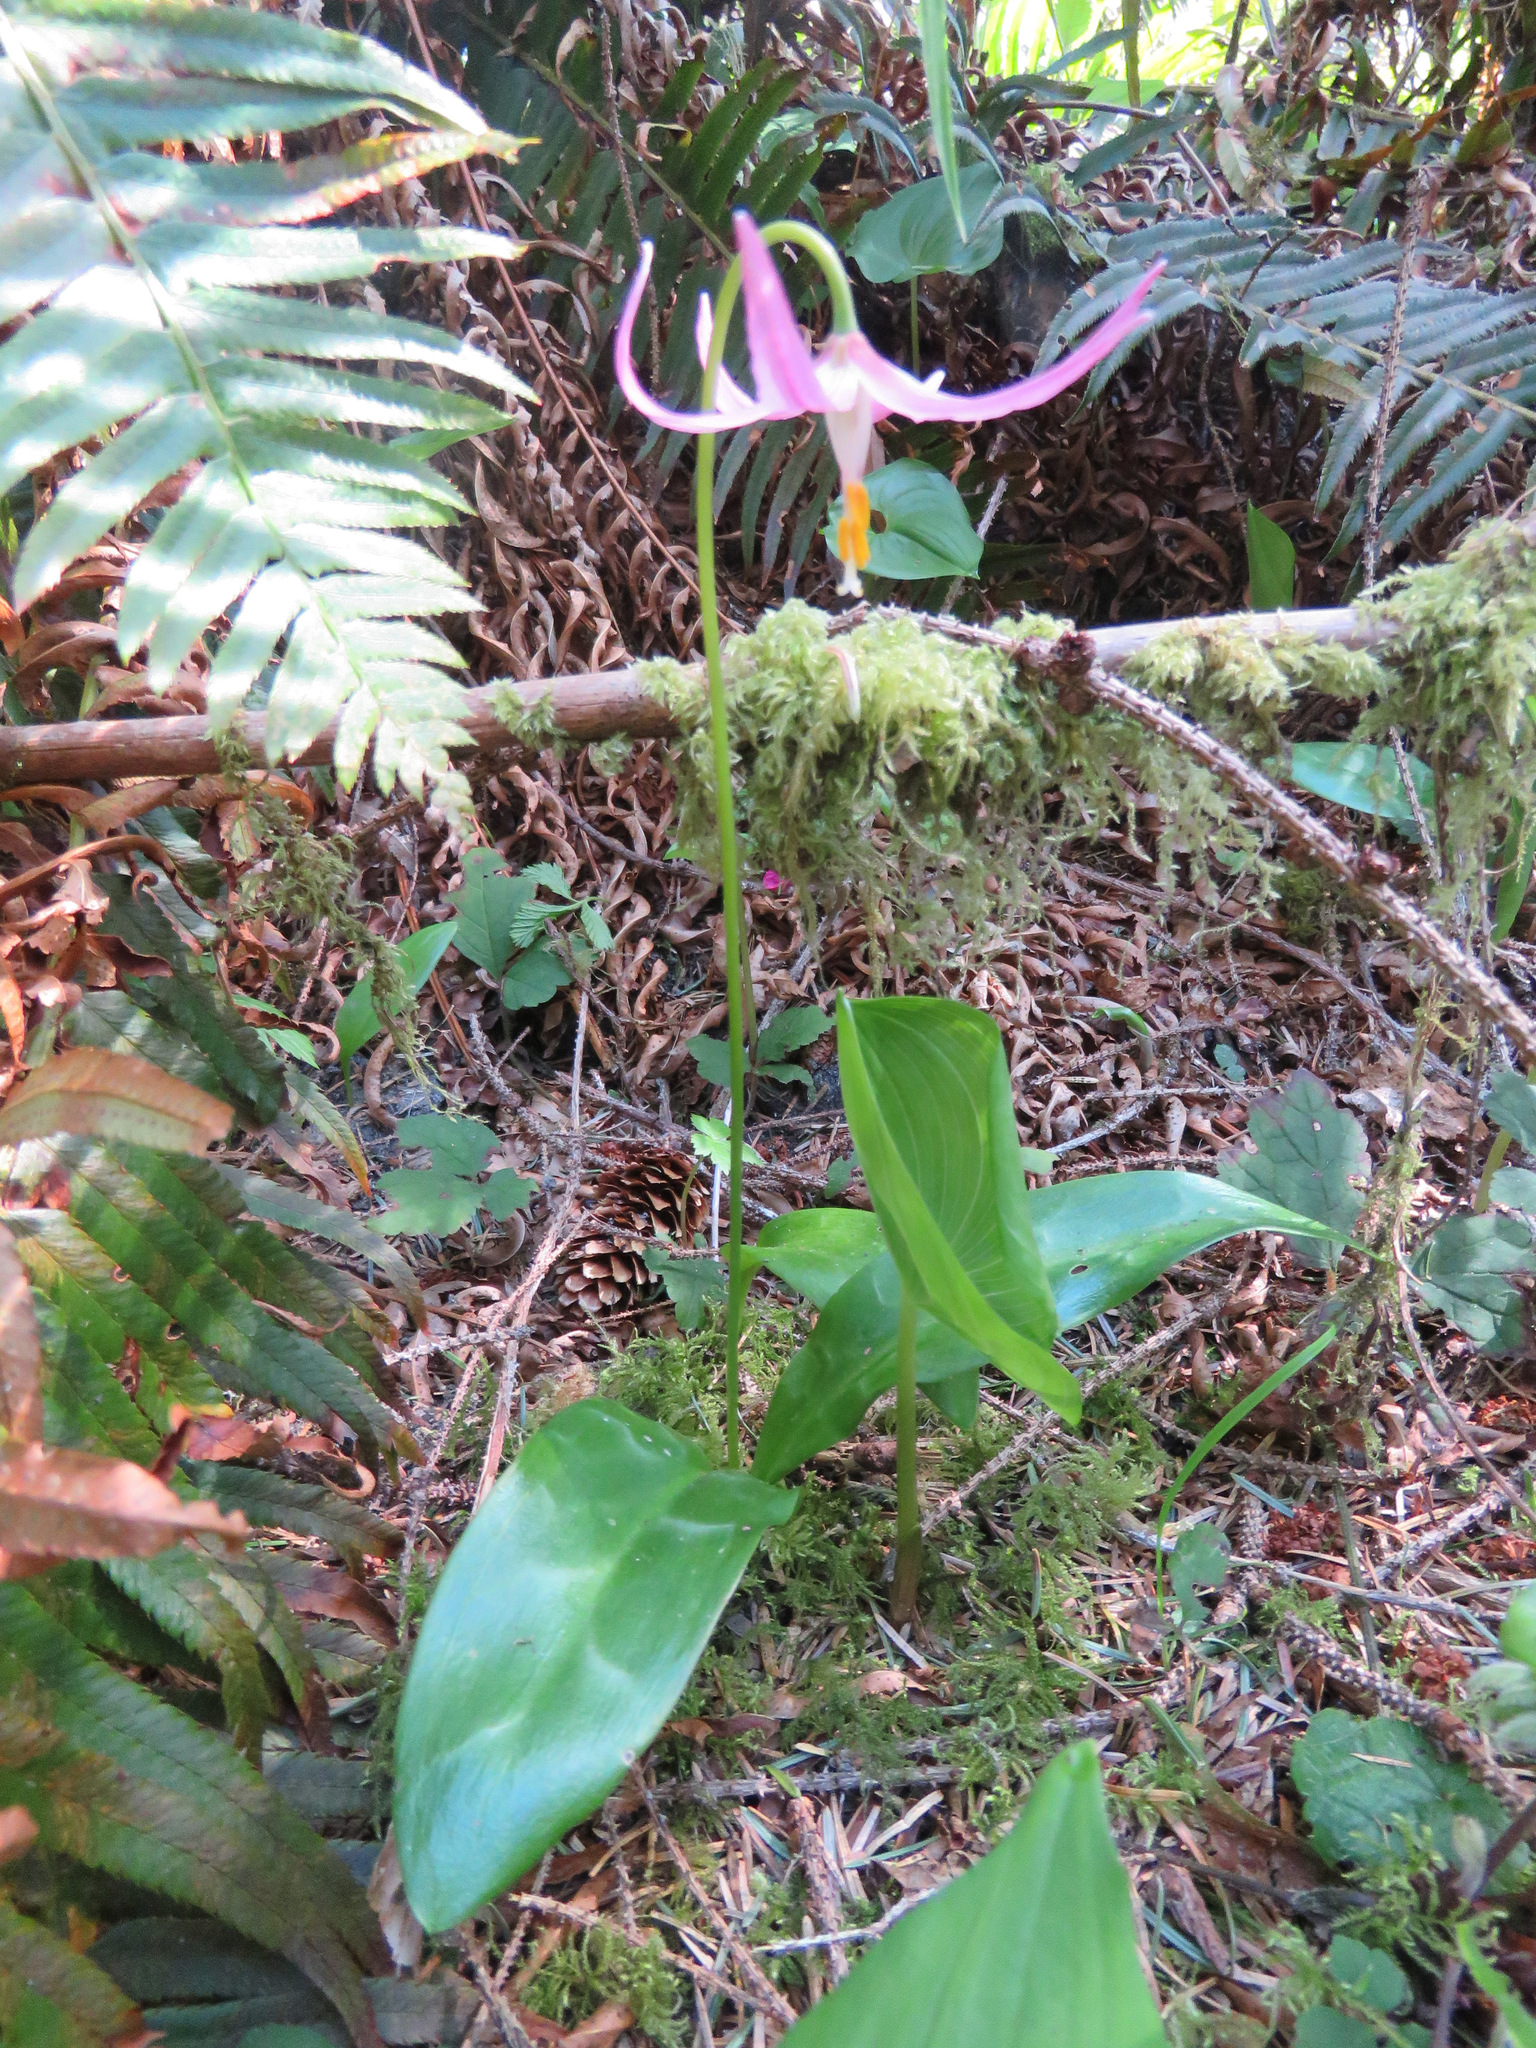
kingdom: Plantae
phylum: Tracheophyta
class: Liliopsida
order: Liliales
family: Liliaceae
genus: Erythronium
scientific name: Erythronium revolutum
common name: Pink fawn-lily
